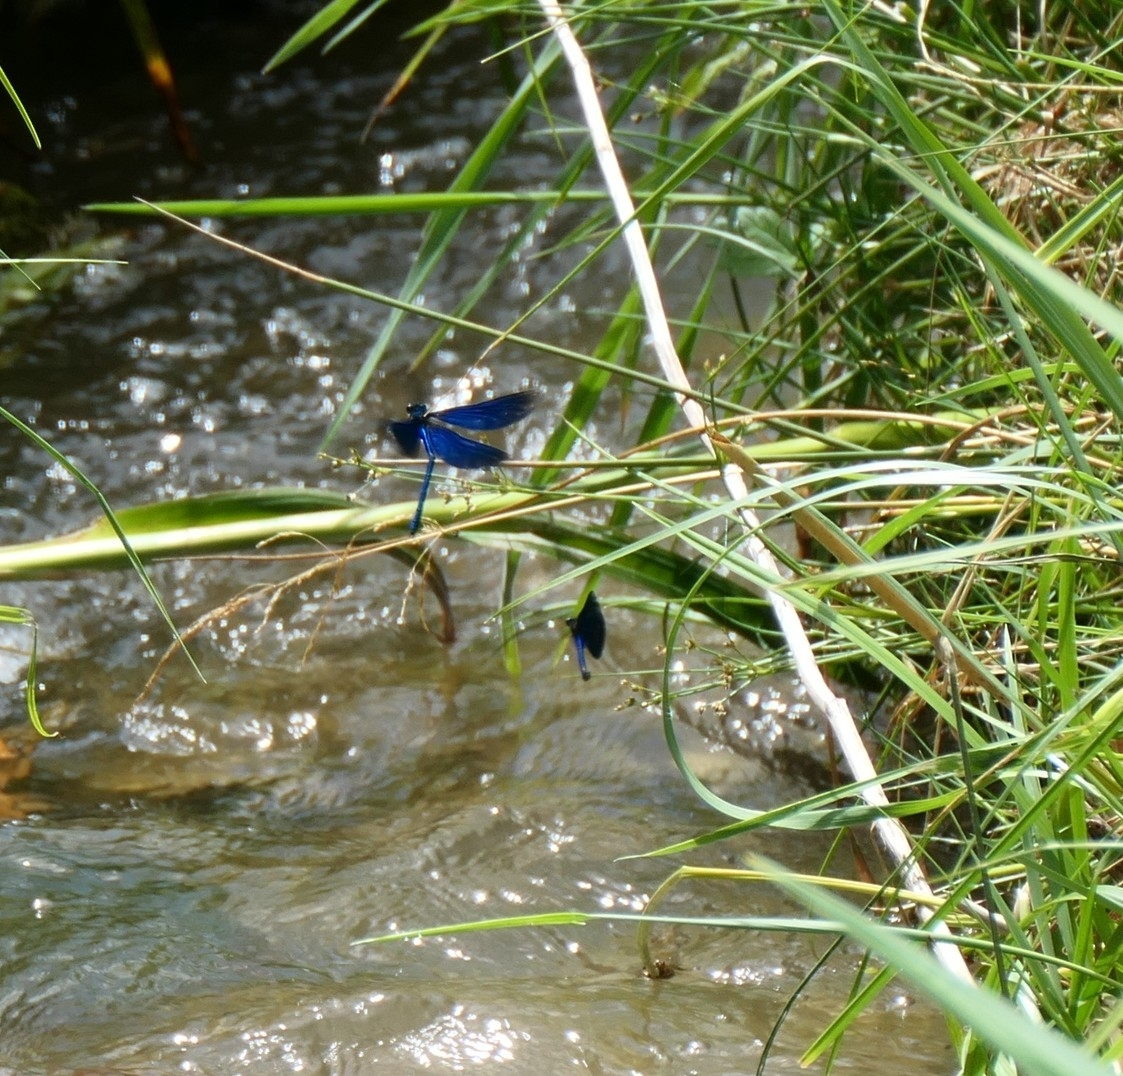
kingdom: Animalia
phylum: Arthropoda
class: Insecta
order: Odonata
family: Calopterygidae
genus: Calopteryx
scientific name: Calopteryx virgo
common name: Beautiful demoiselle
